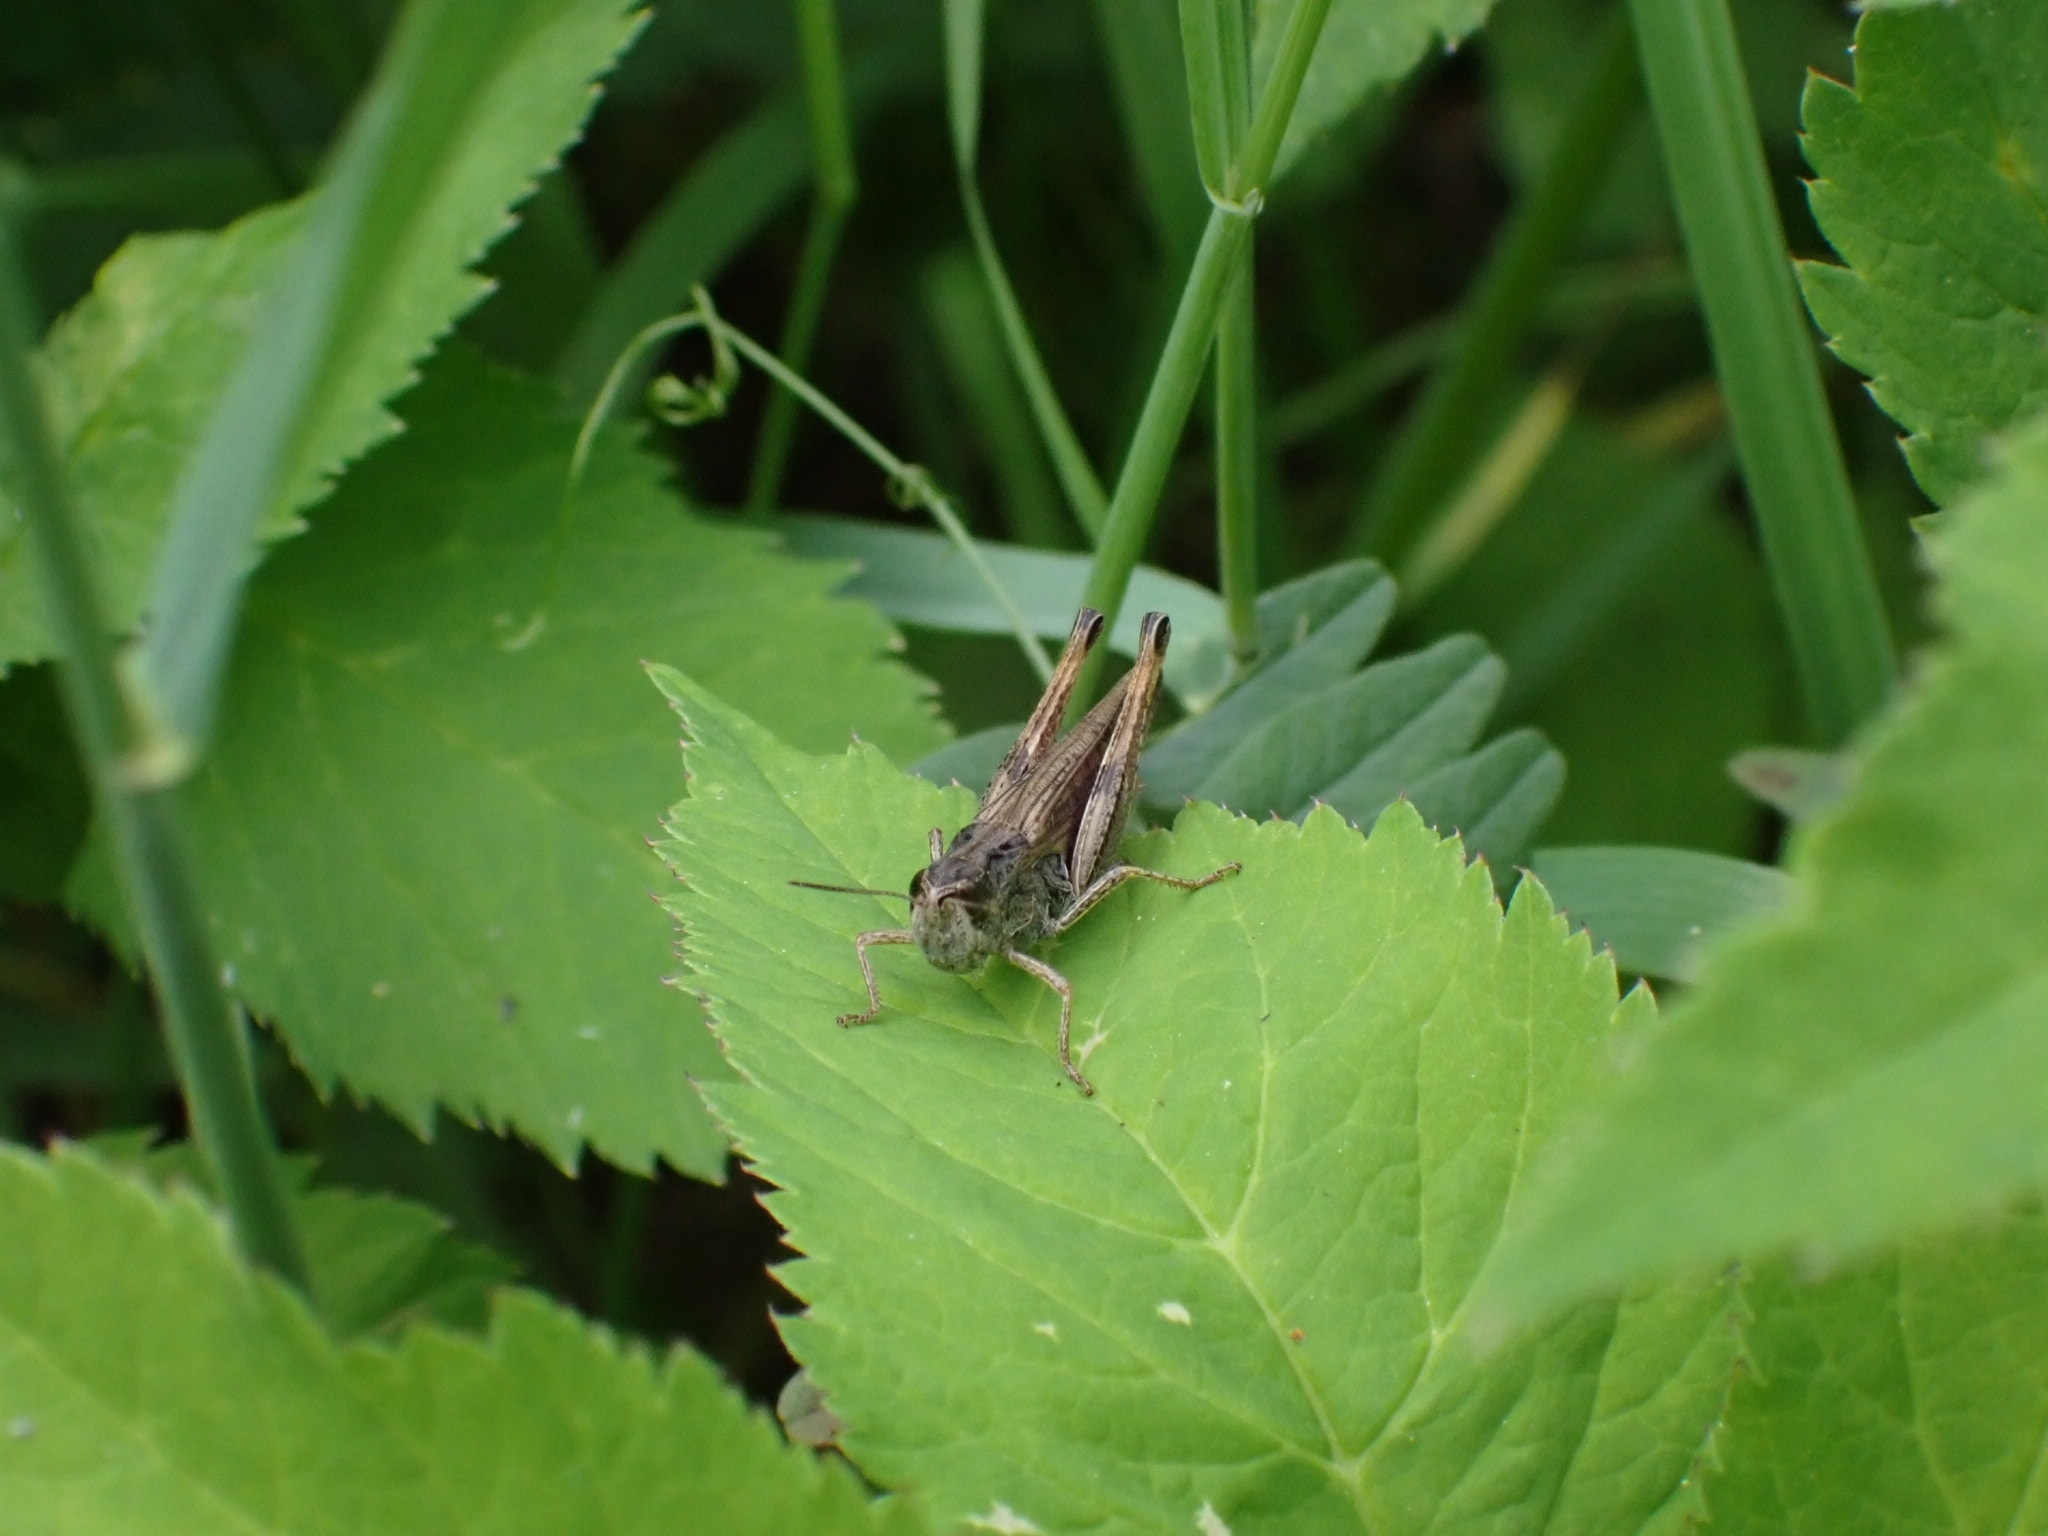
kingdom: Animalia
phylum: Arthropoda
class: Insecta
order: Orthoptera
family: Acrididae
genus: Stauroderus
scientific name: Stauroderus scalaris
